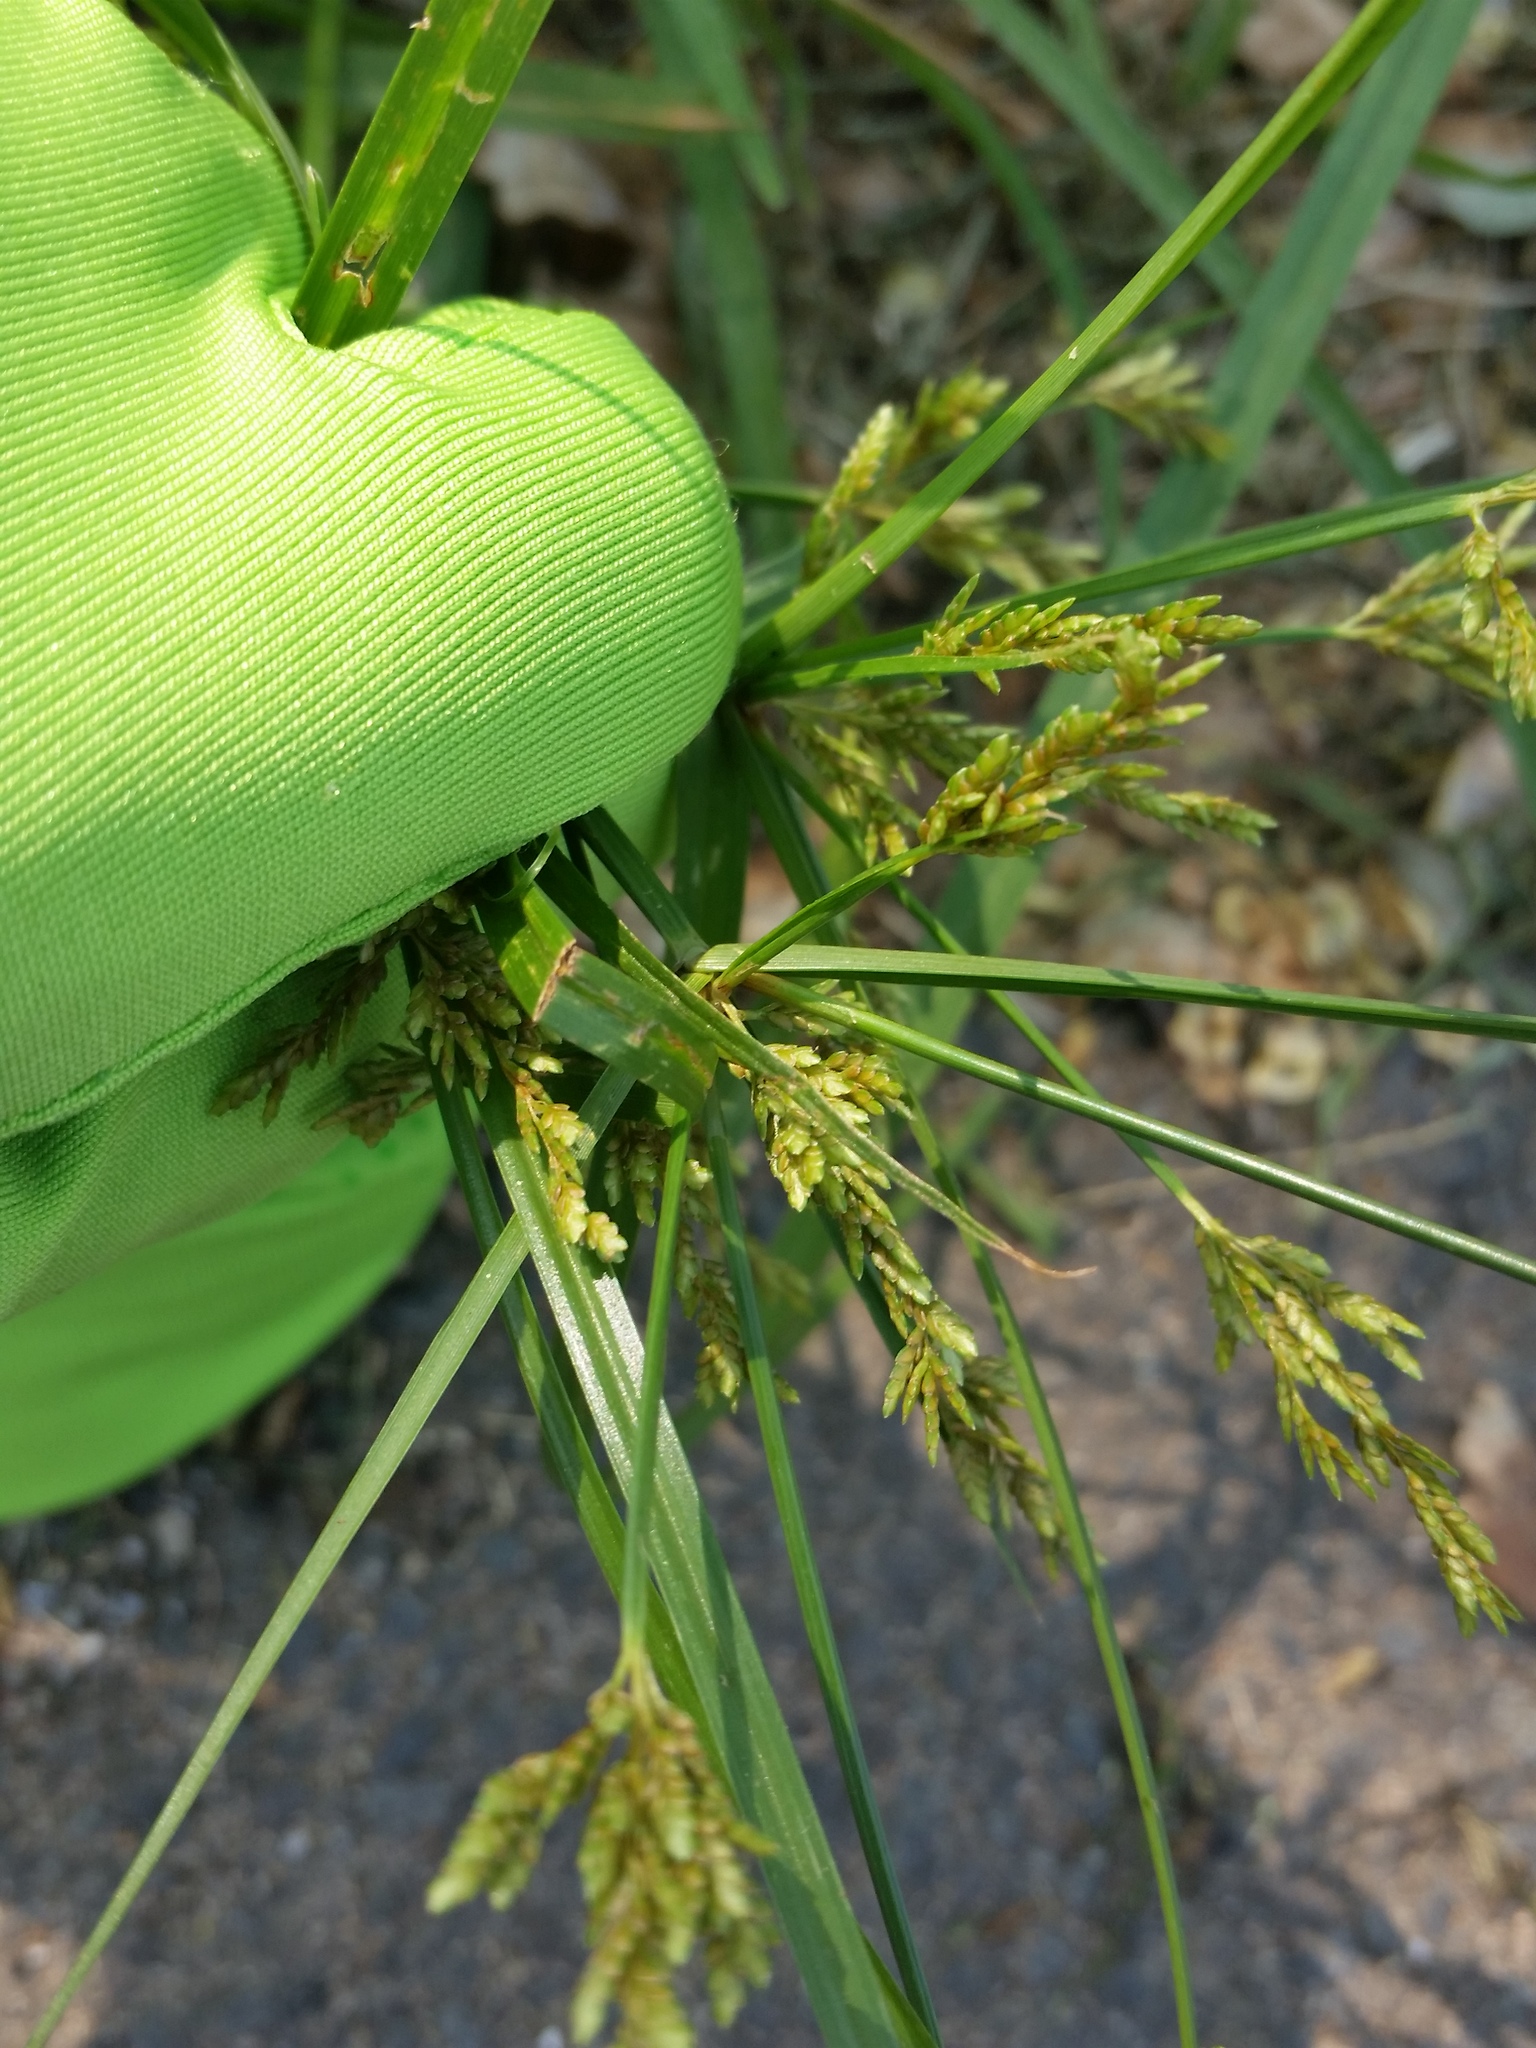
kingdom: Plantae
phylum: Tracheophyta
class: Liliopsida
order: Poales
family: Cyperaceae
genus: Cyperus
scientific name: Cyperus iria
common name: Ricefield flatsedge
